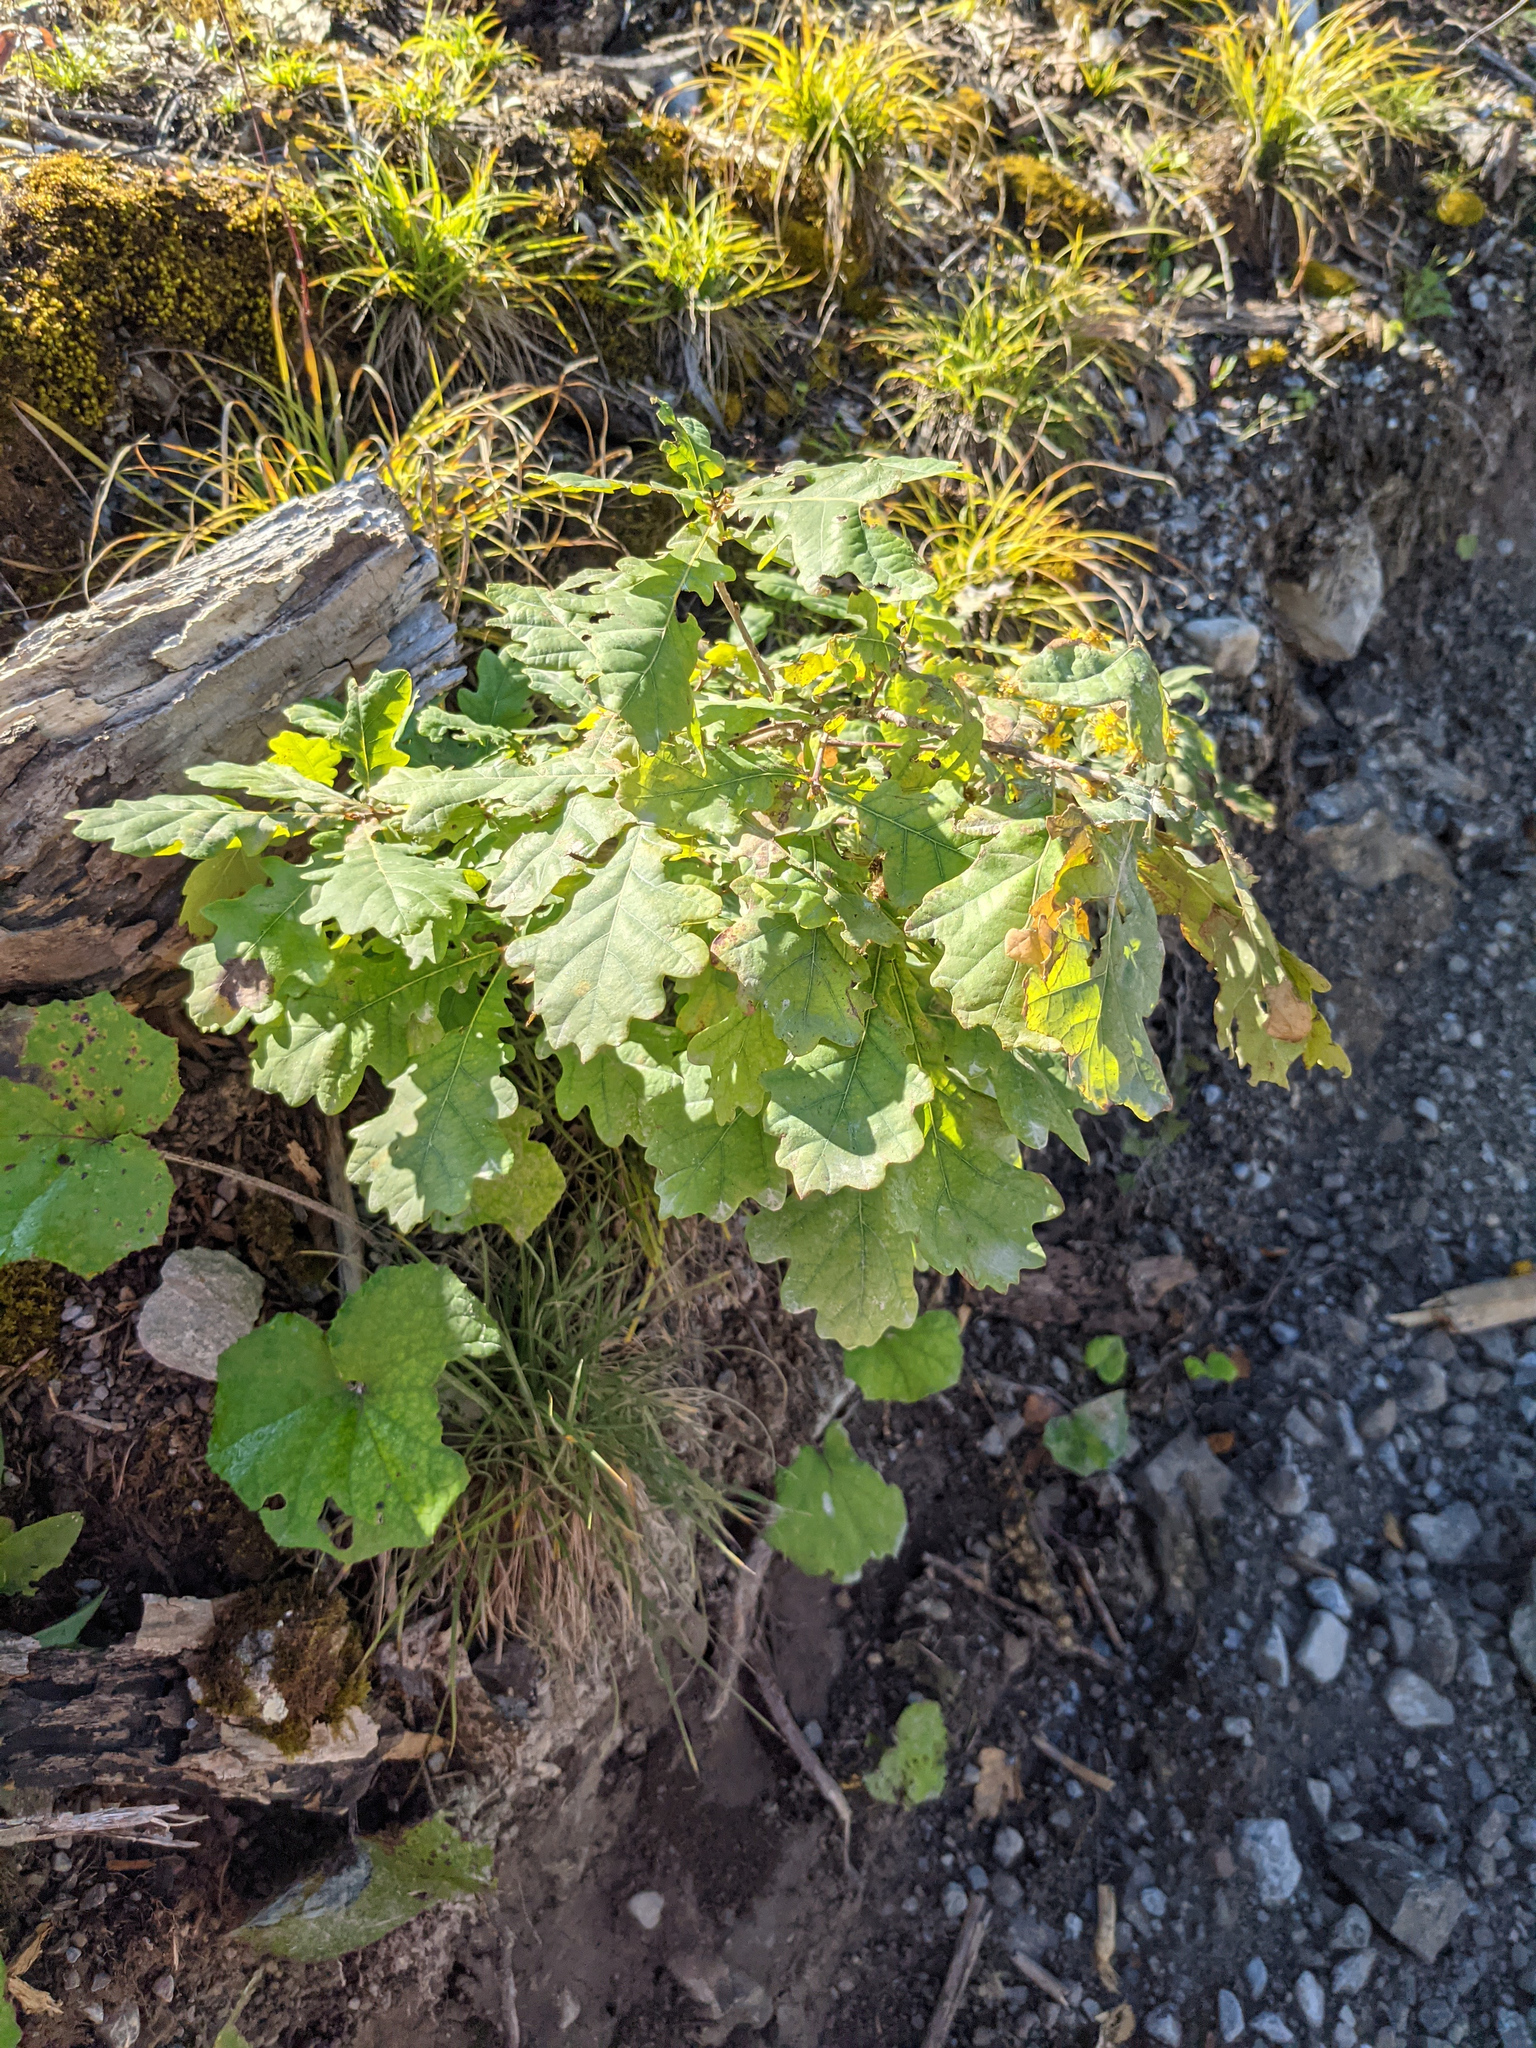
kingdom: Plantae
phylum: Tracheophyta
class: Magnoliopsida
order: Fagales
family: Fagaceae
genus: Quercus
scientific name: Quercus robur
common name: Pedunculate oak
